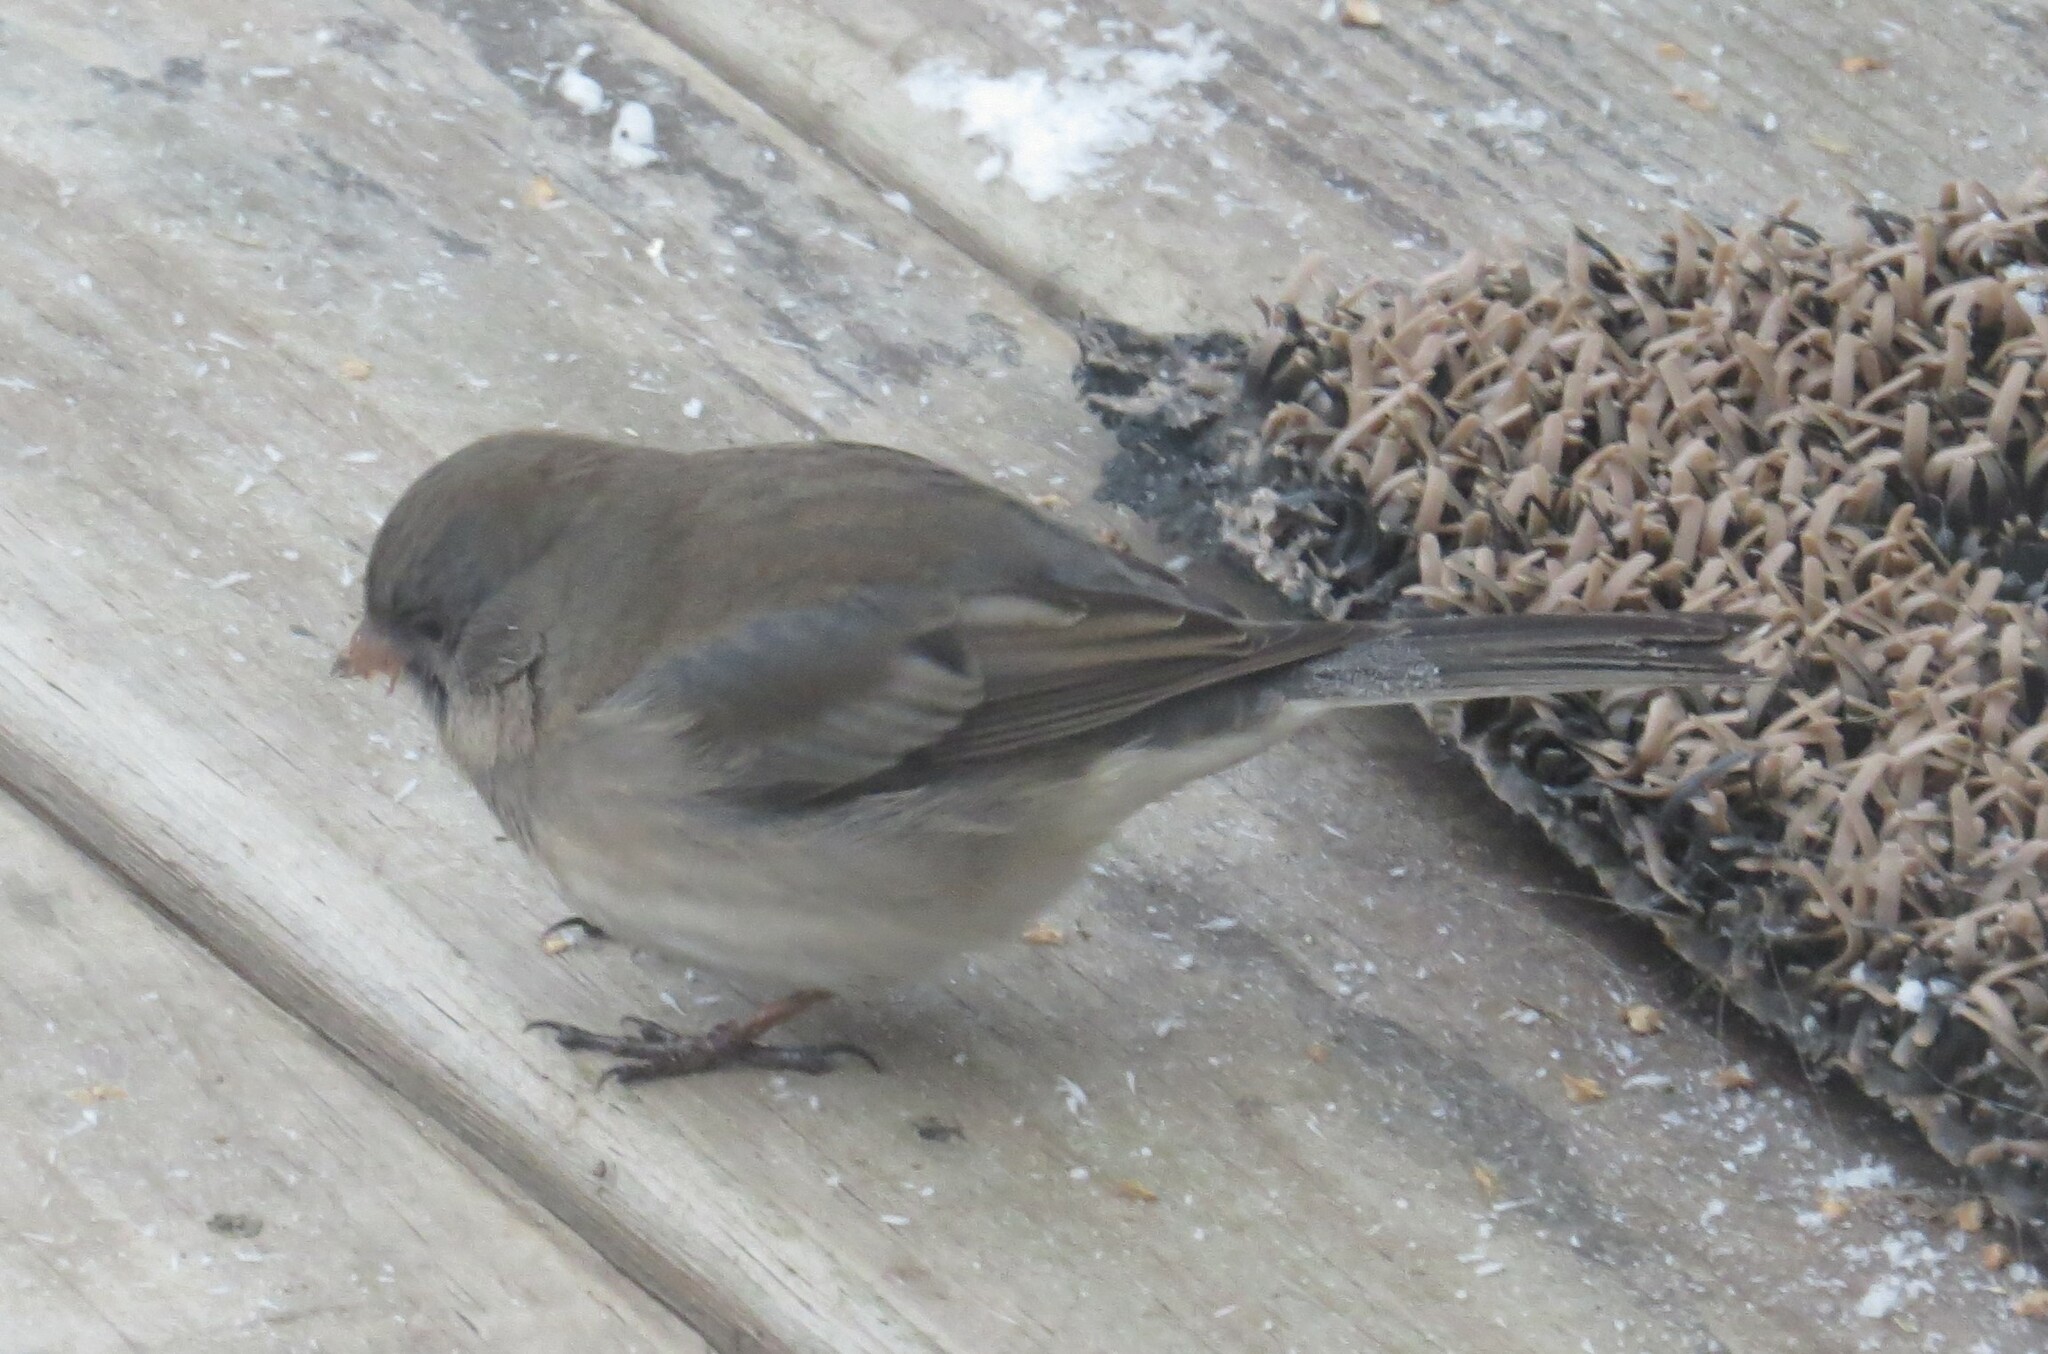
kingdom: Animalia
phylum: Chordata
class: Aves
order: Passeriformes
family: Passerellidae
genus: Junco
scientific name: Junco hyemalis
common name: Dark-eyed junco
